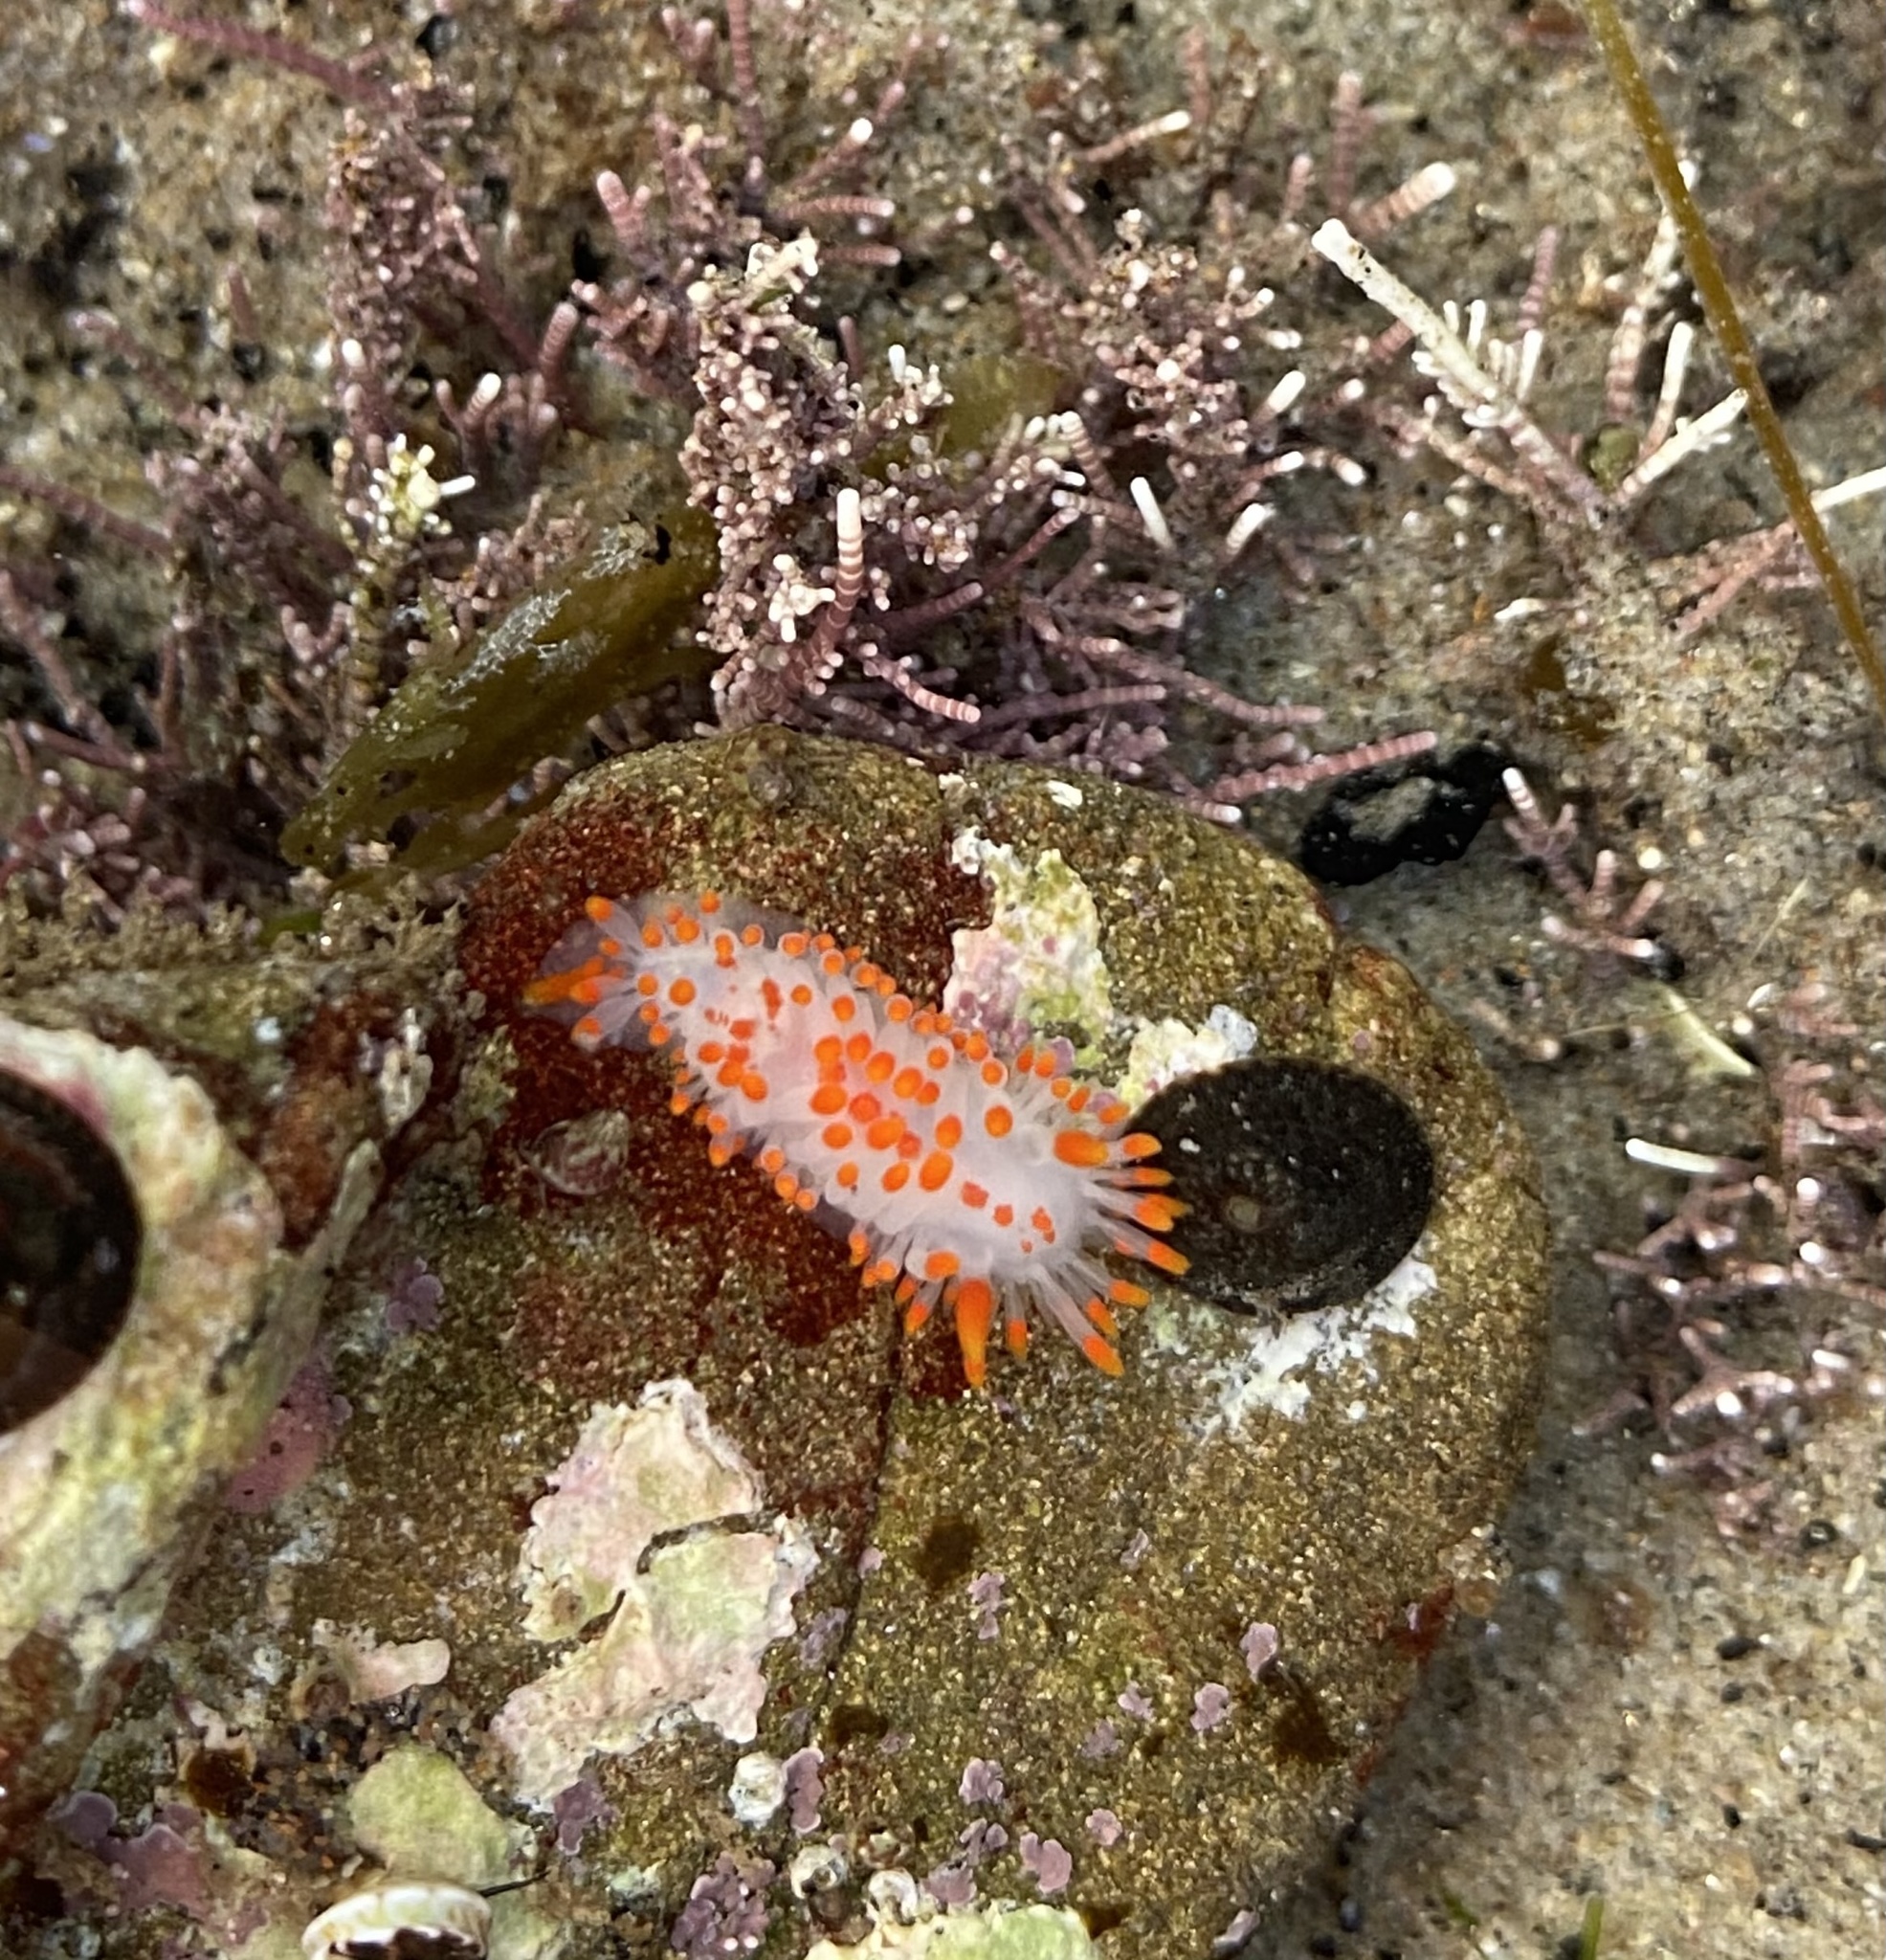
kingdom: Animalia
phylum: Mollusca
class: Gastropoda
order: Nudibranchia
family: Polyceridae
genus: Limacia
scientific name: Limacia mcdonaldi
